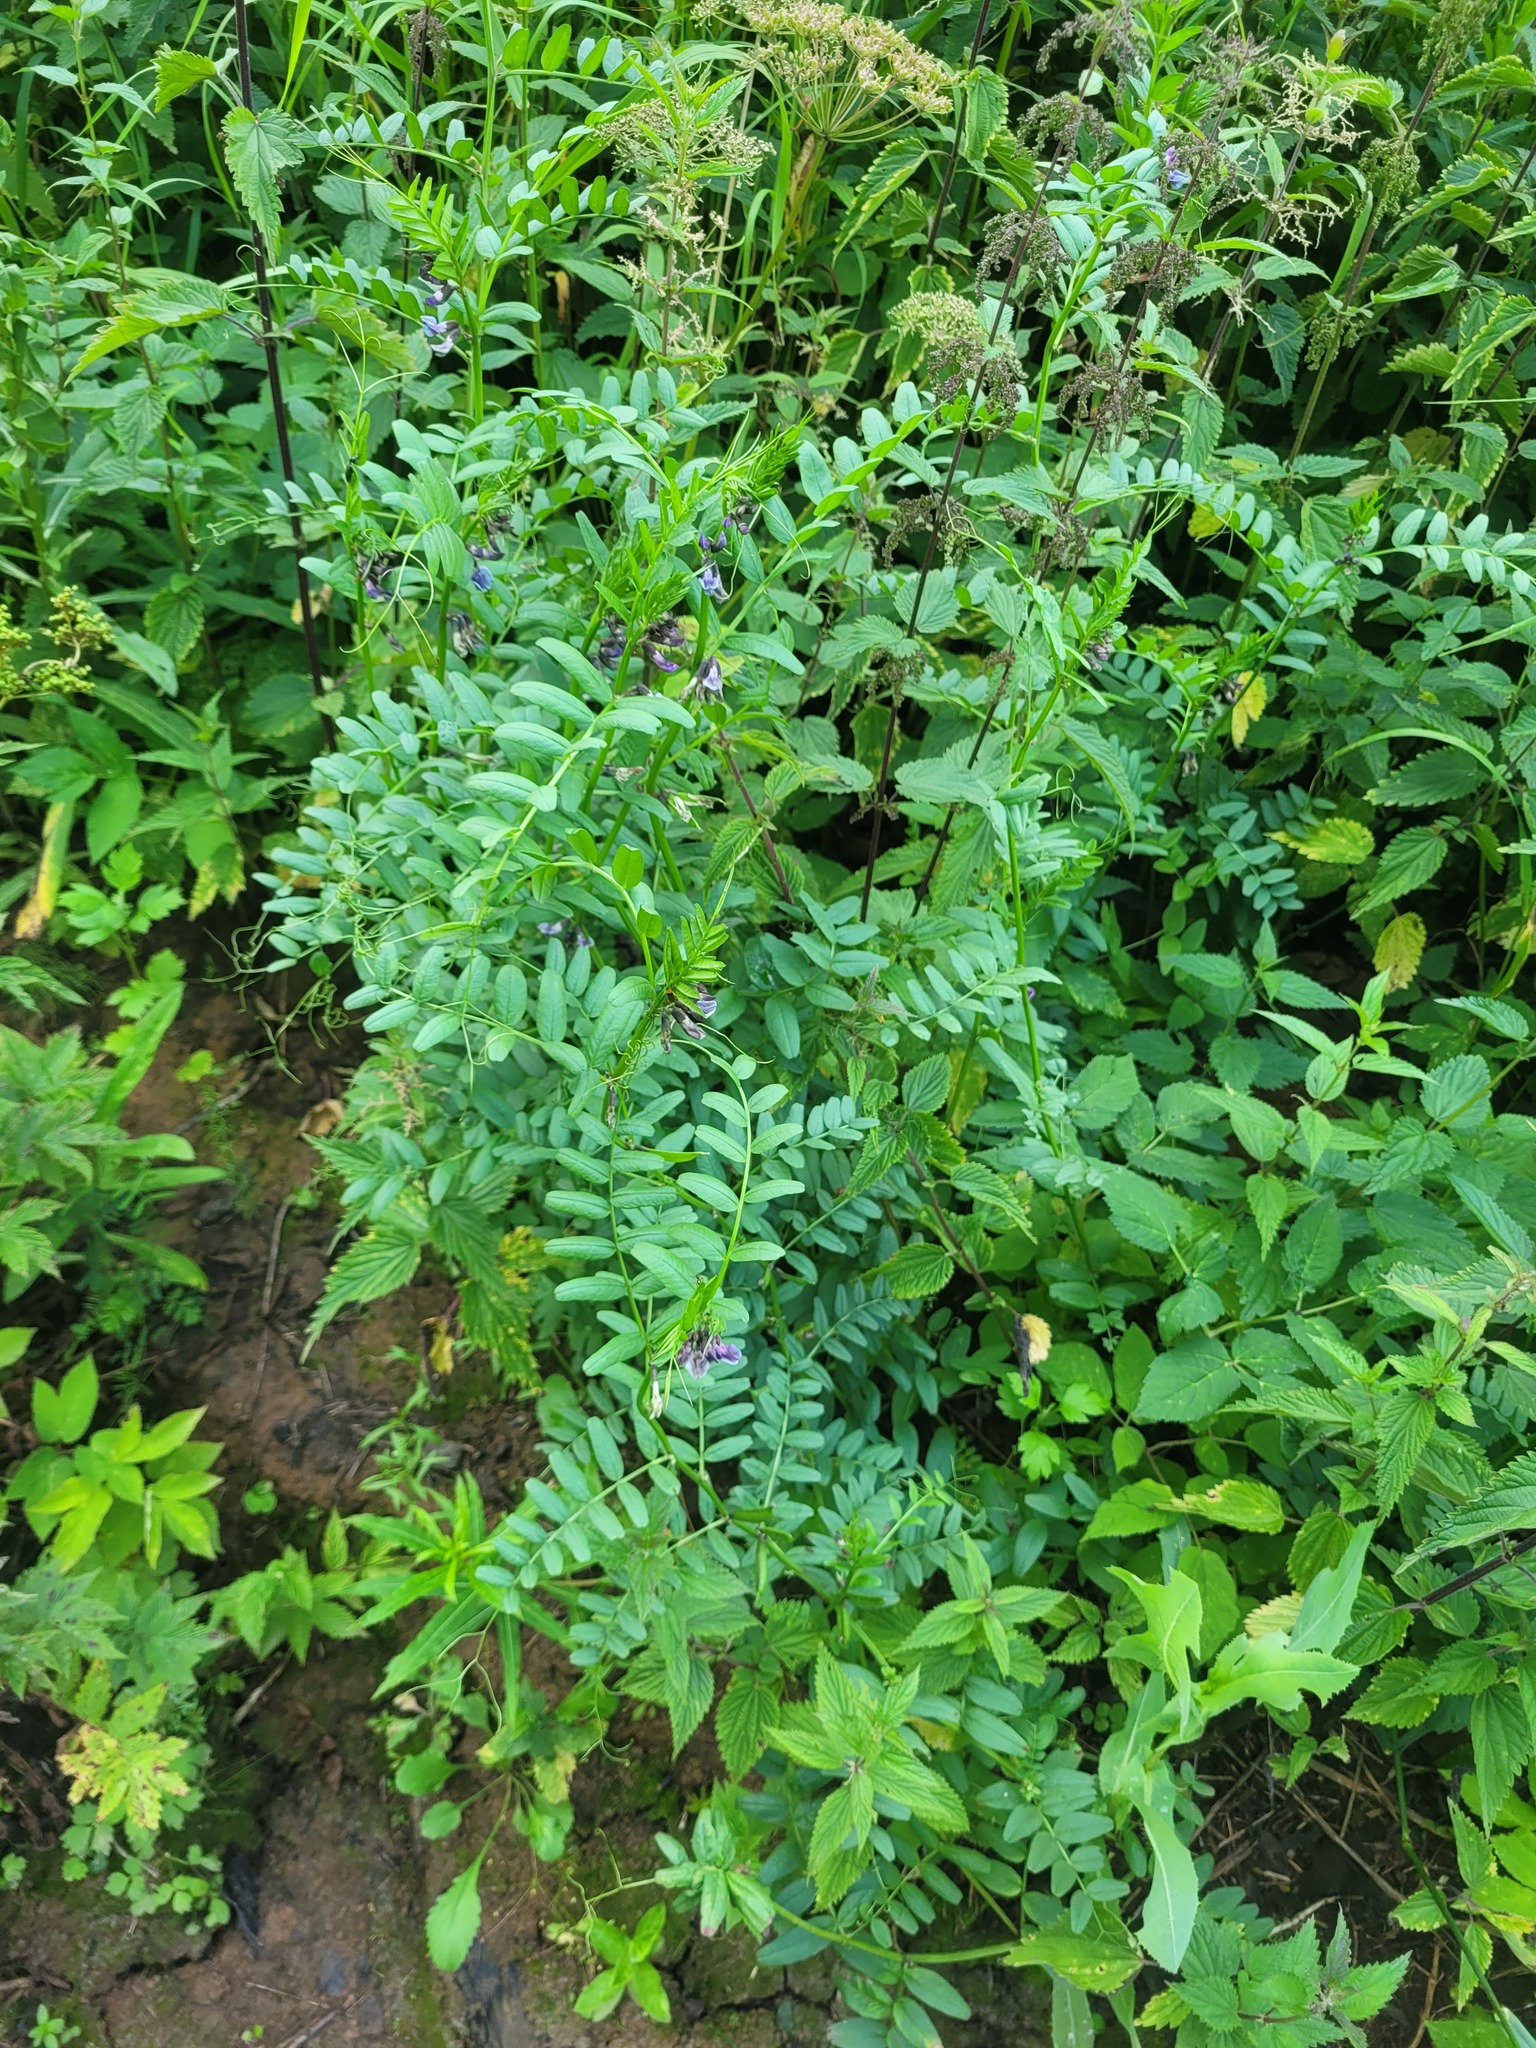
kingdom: Plantae
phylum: Tracheophyta
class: Magnoliopsida
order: Fabales
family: Fabaceae
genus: Vicia
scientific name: Vicia sepium
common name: Bush vetch
